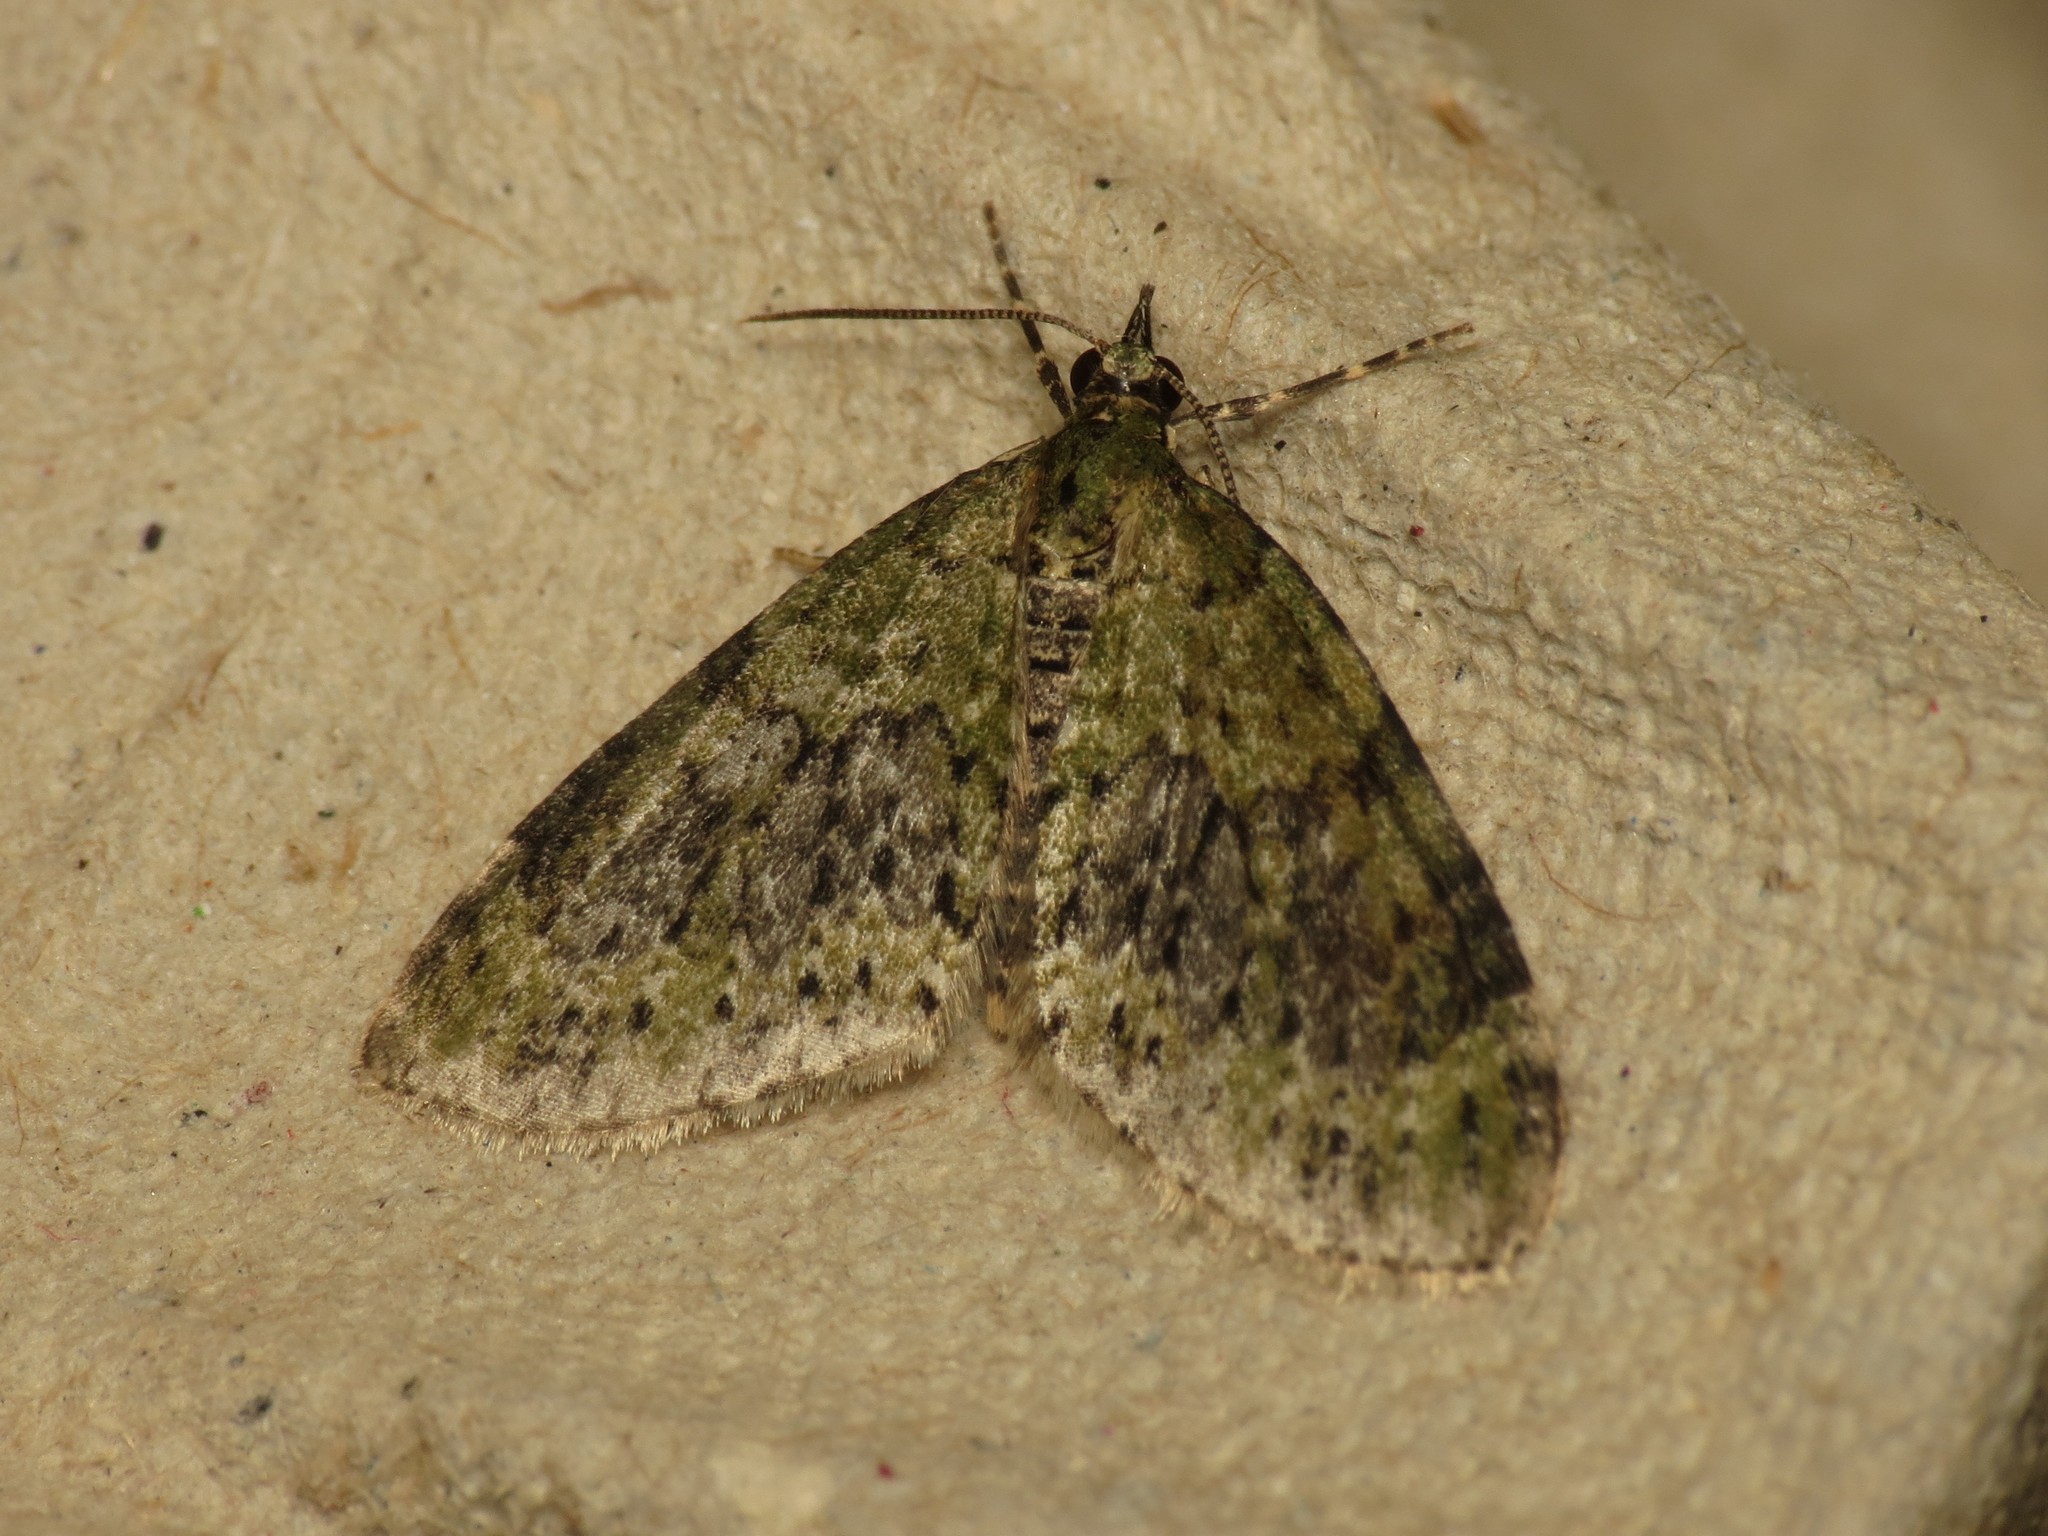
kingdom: Animalia
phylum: Arthropoda
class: Insecta
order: Lepidoptera
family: Geometridae
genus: Acasis
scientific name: Acasis viretata
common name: Yellow-barred brindle
